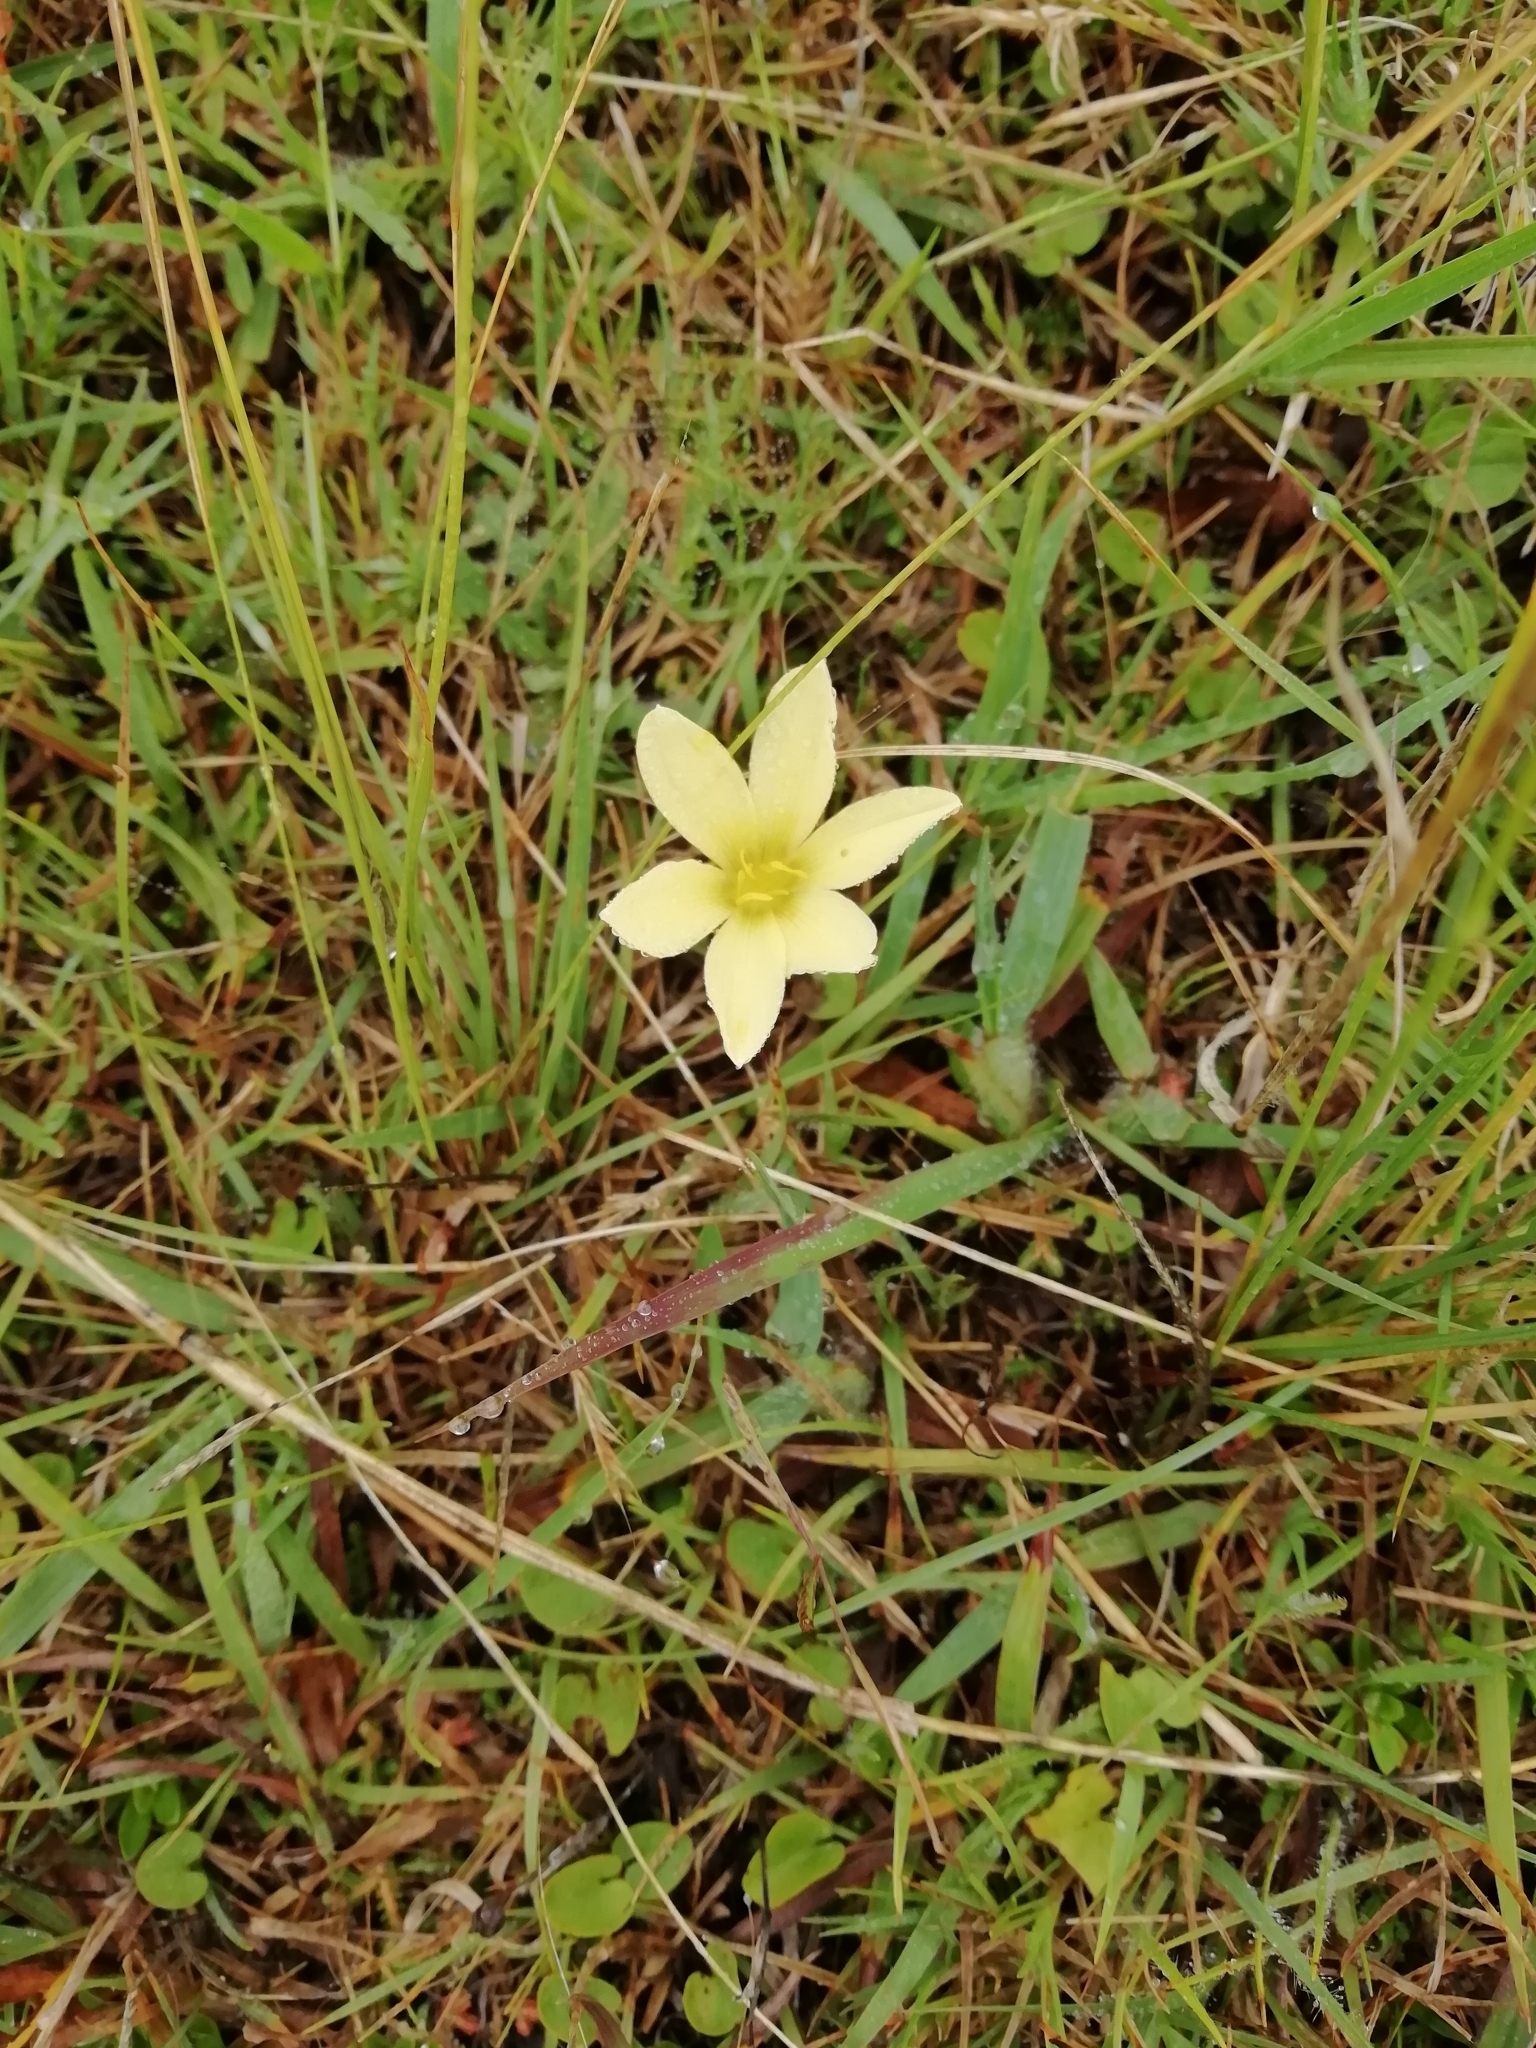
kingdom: Plantae
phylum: Tracheophyta
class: Liliopsida
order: Asparagales
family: Amaryllidaceae
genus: Zephyranthes
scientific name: Zephyranthes americana
